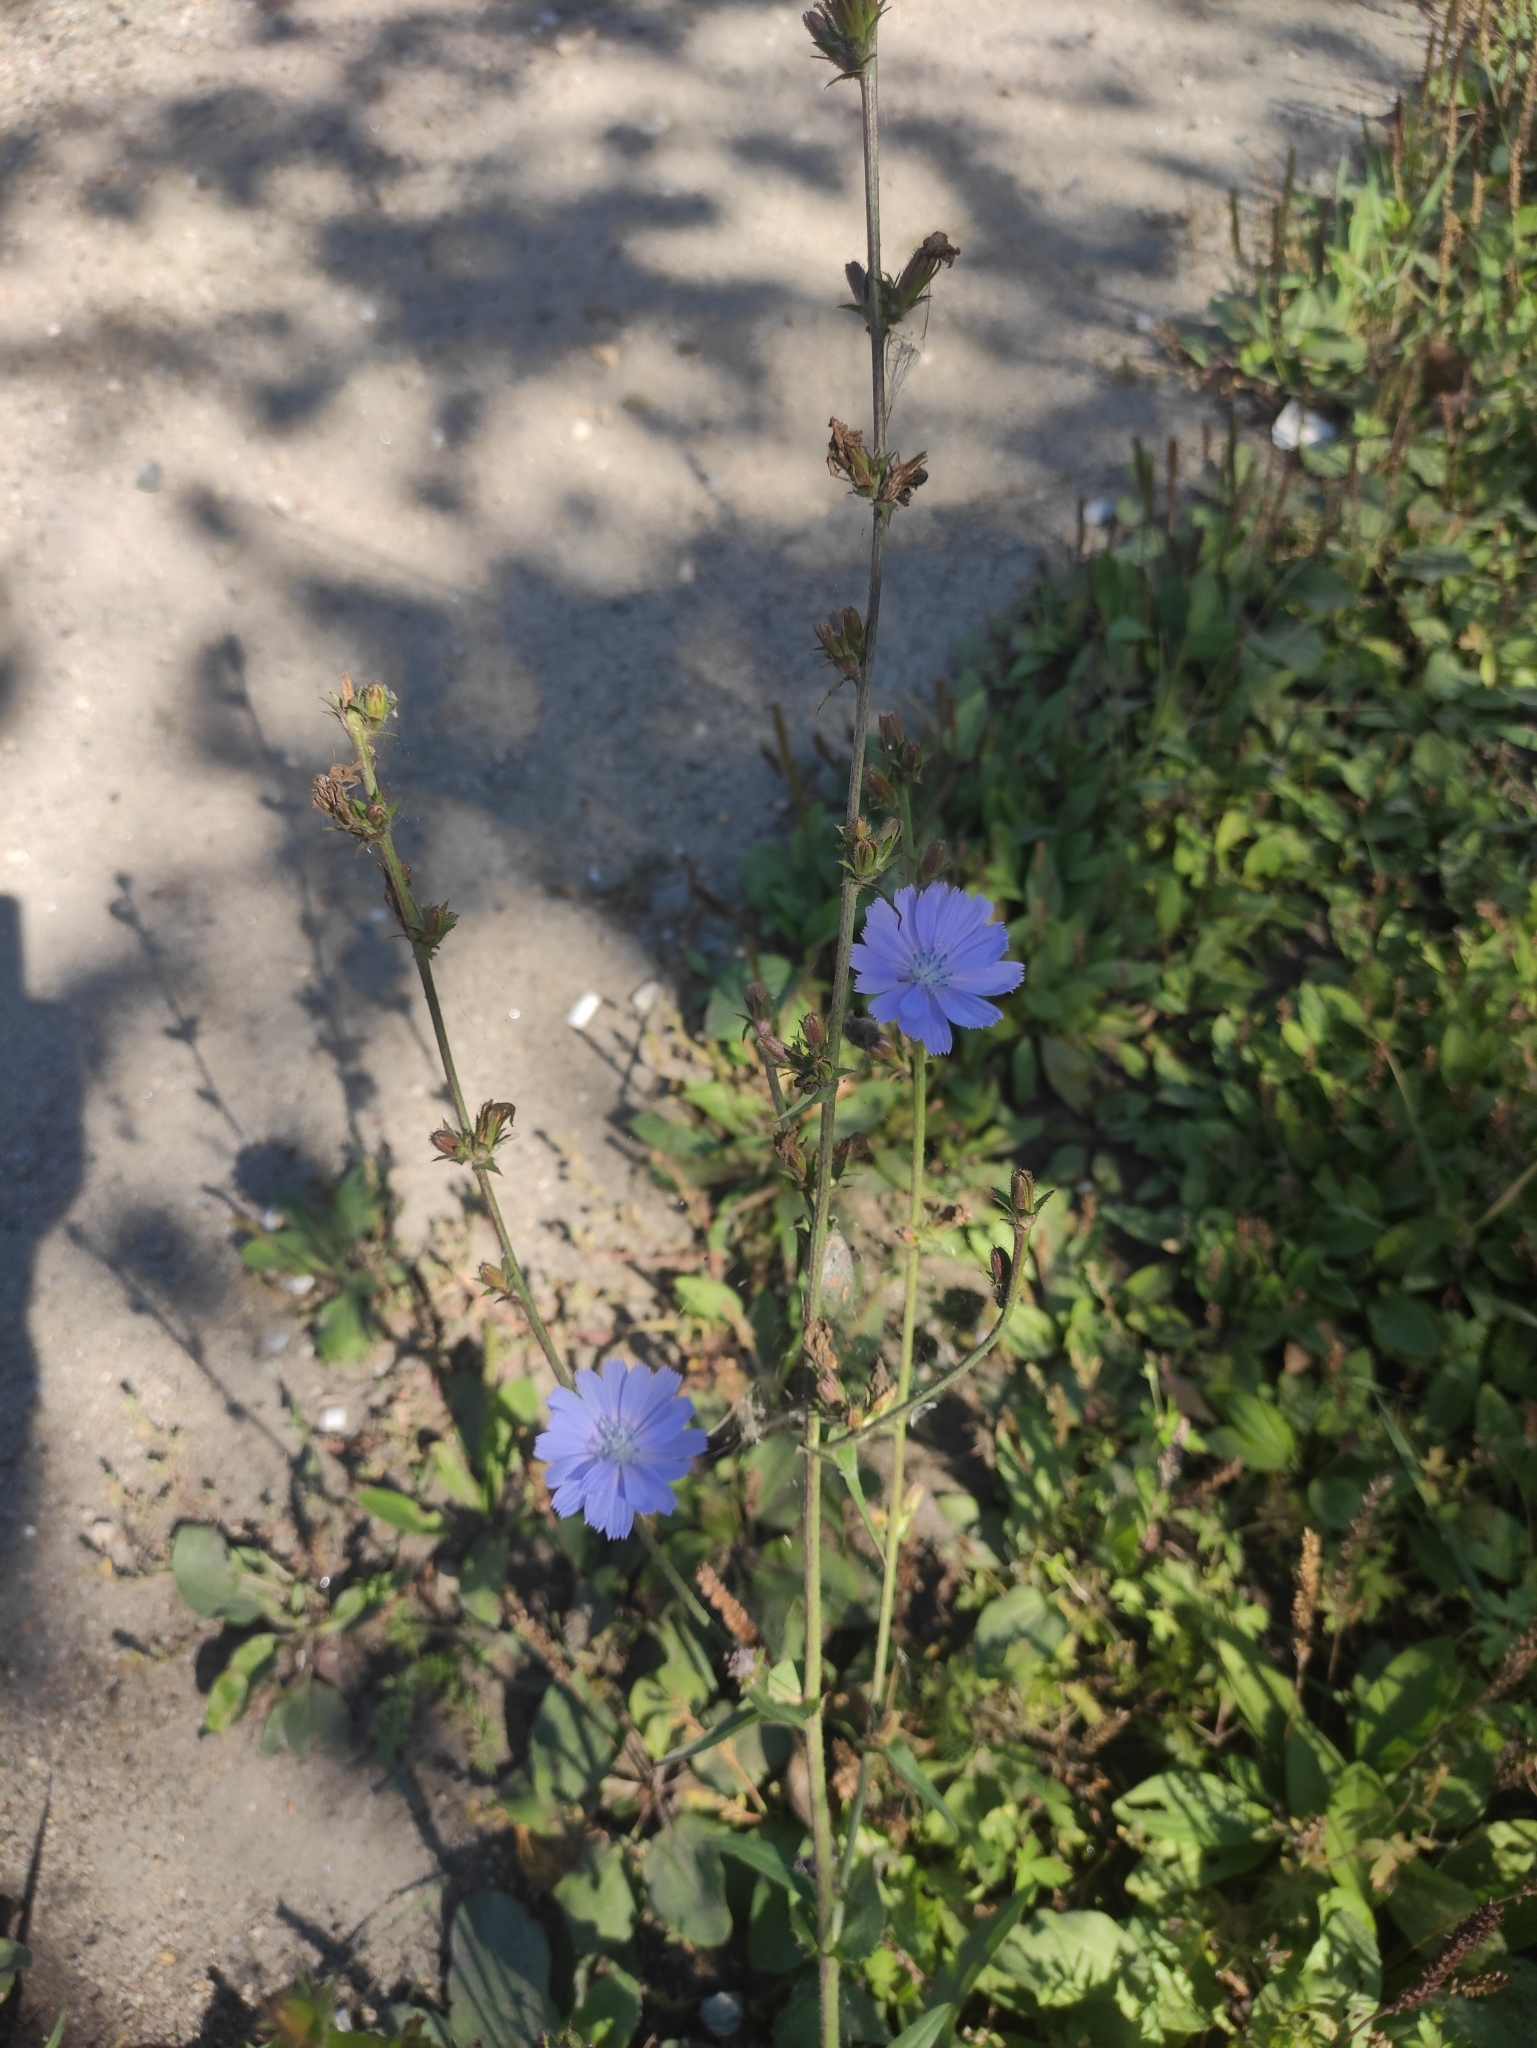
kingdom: Plantae
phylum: Tracheophyta
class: Magnoliopsida
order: Asterales
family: Asteraceae
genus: Cichorium
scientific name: Cichorium intybus
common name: Chicory
